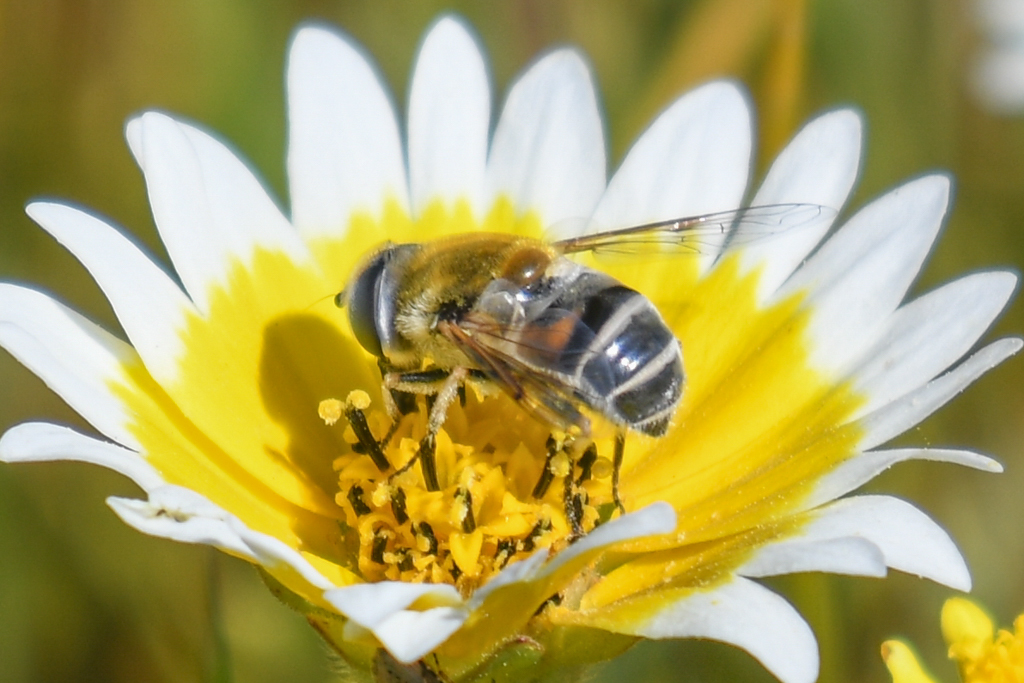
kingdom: Animalia
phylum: Arthropoda
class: Insecta
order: Diptera
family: Syrphidae
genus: Eristalis
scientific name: Eristalis stipator
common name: Yellow-shouldered drone fly
